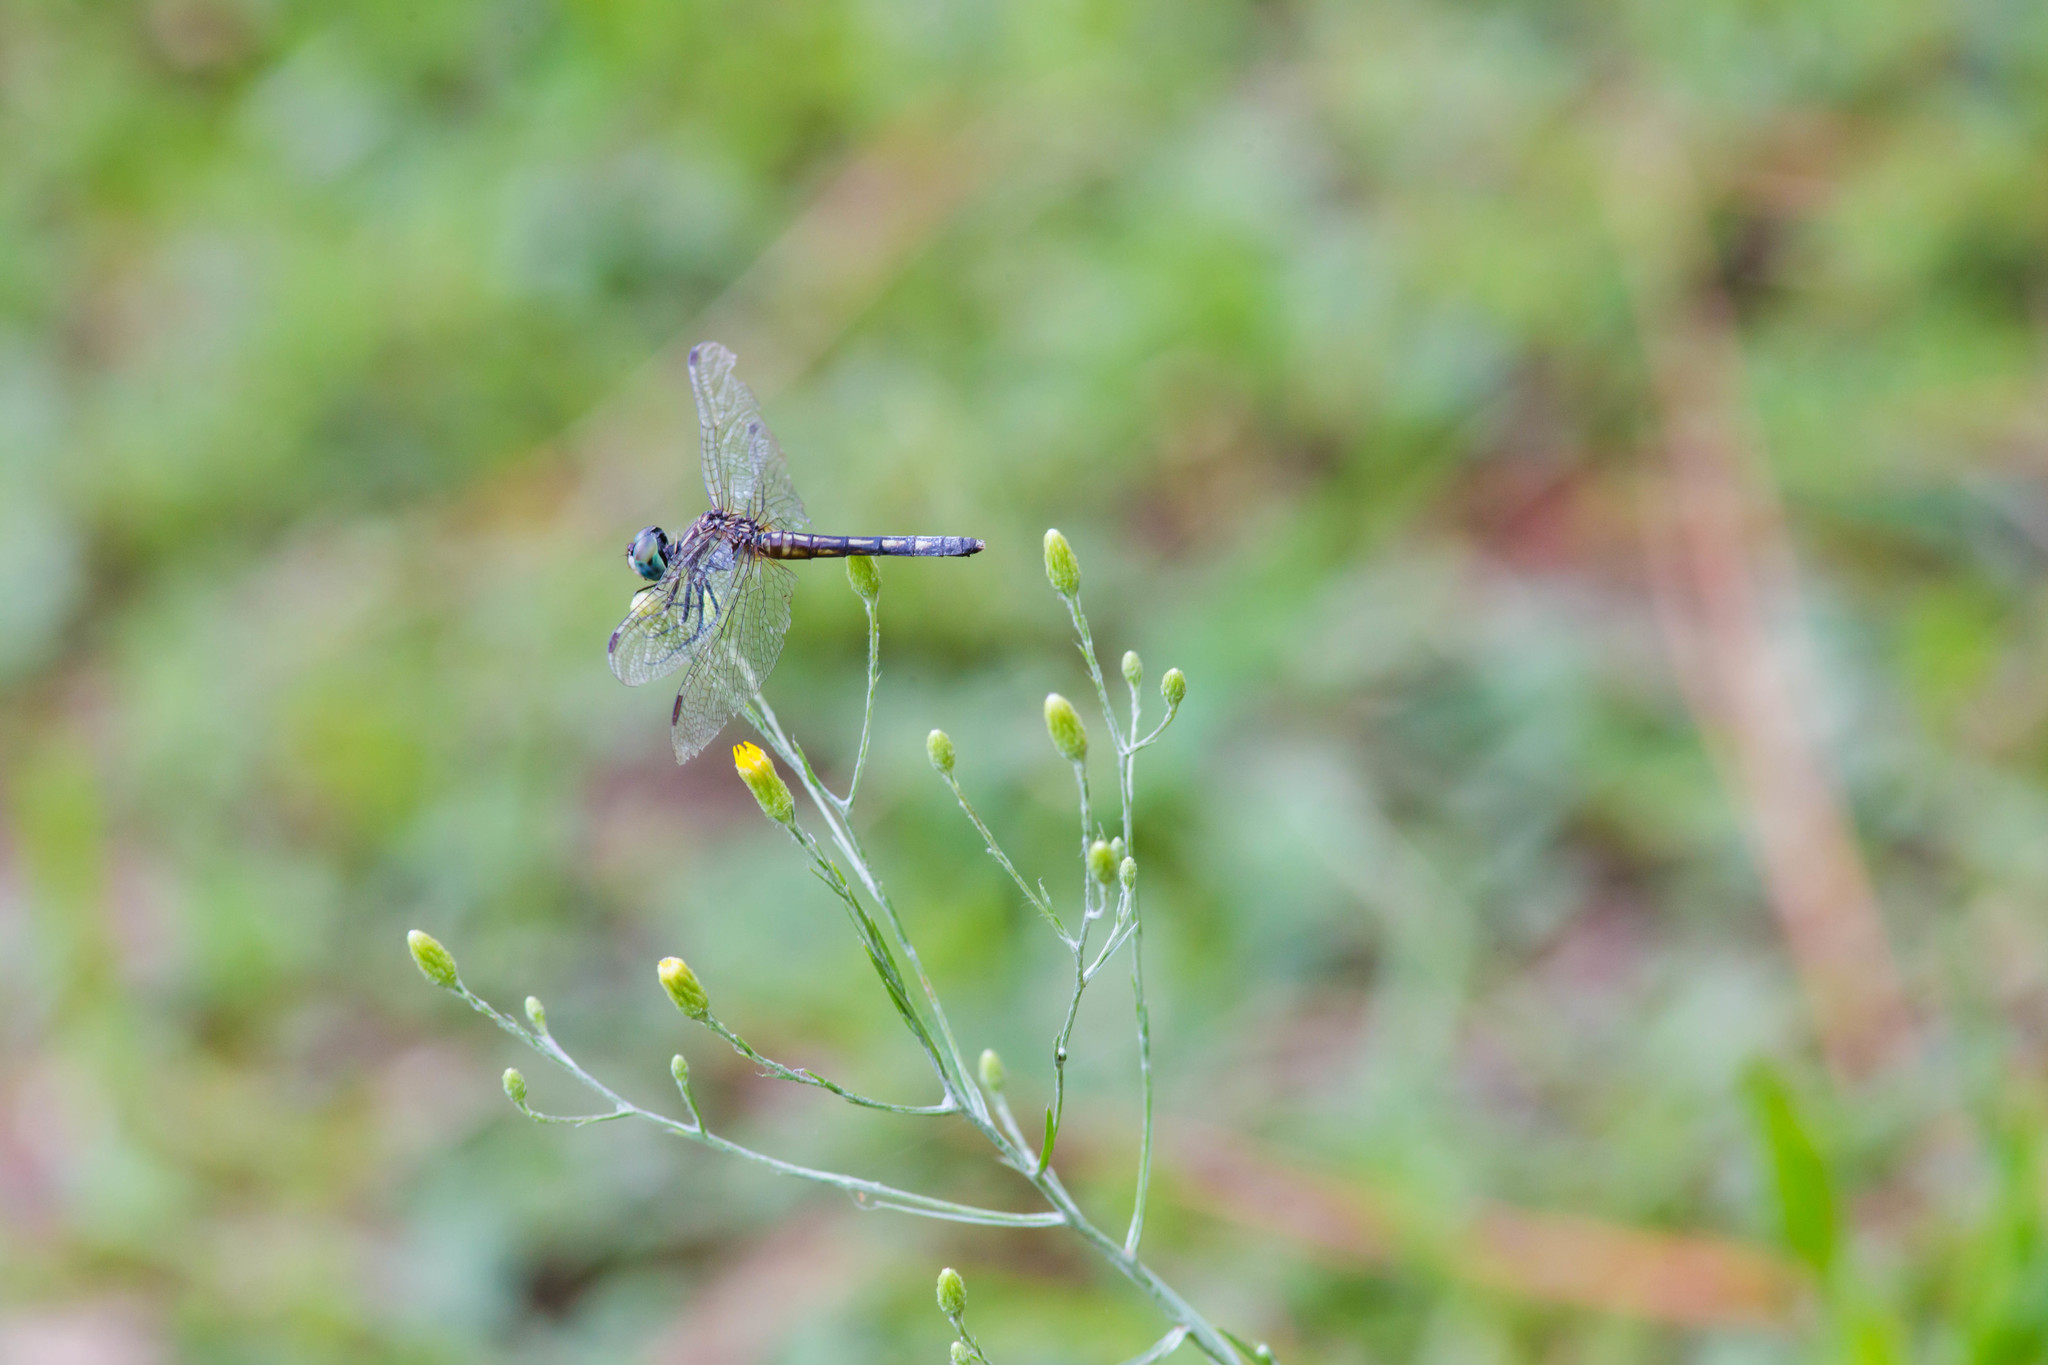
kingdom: Animalia
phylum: Arthropoda
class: Insecta
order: Odonata
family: Libellulidae
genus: Pachydiplax
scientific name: Pachydiplax longipennis
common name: Blue dasher
